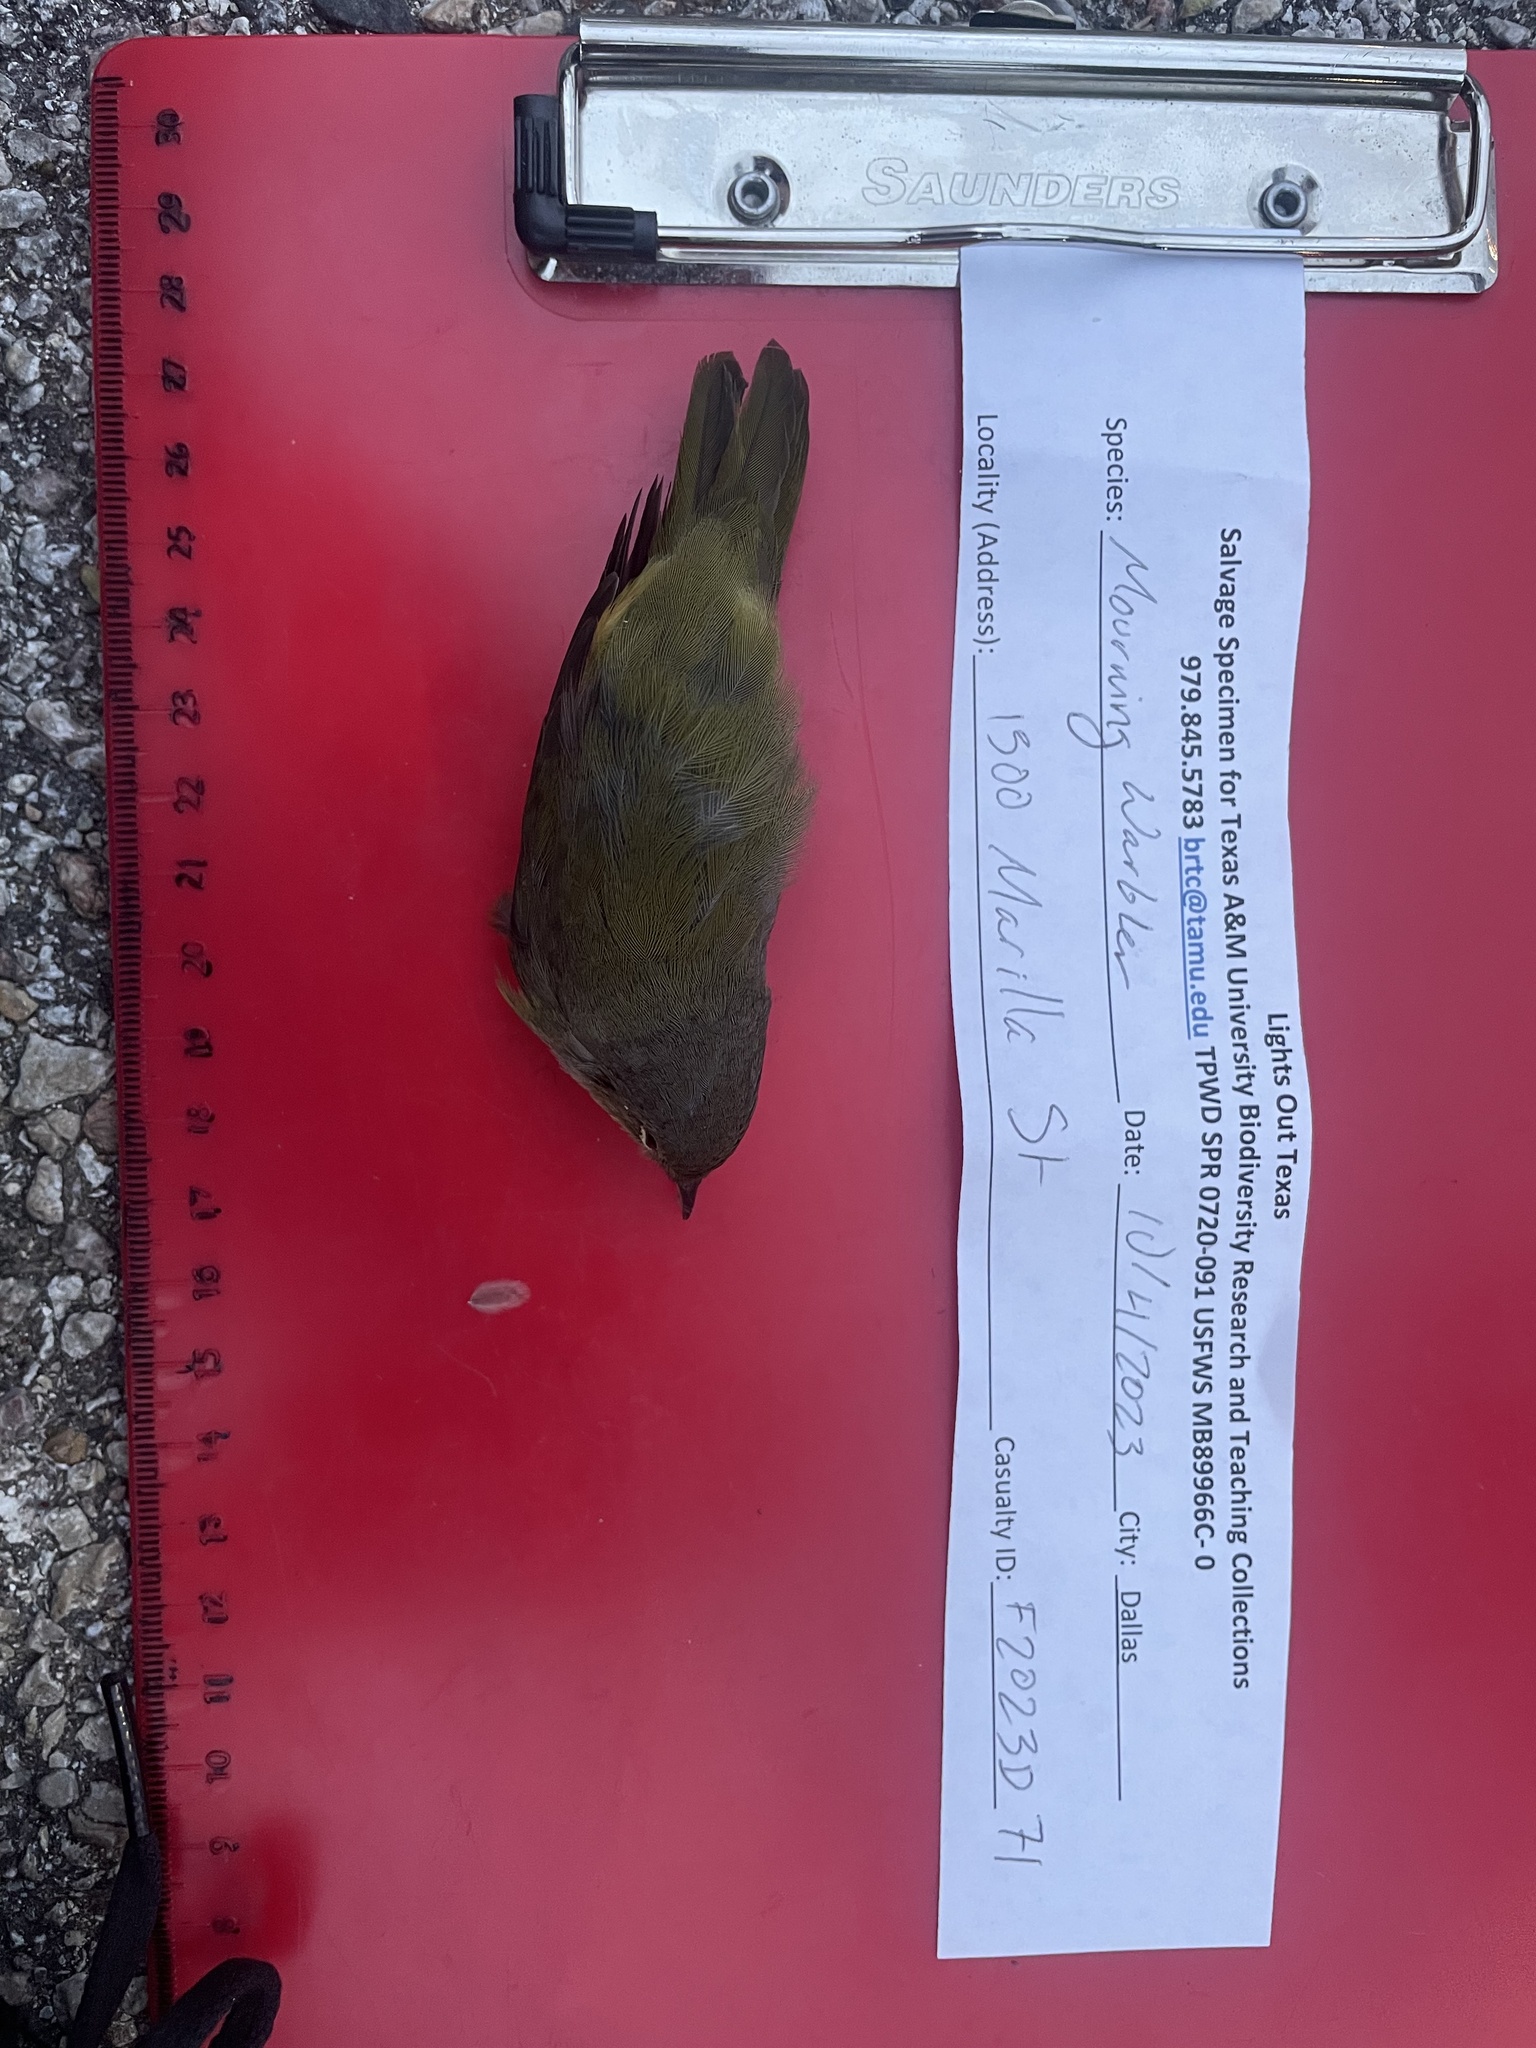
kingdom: Animalia
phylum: Chordata
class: Aves
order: Passeriformes
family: Parulidae
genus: Geothlypis
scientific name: Geothlypis philadelphia
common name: Mourning warbler
